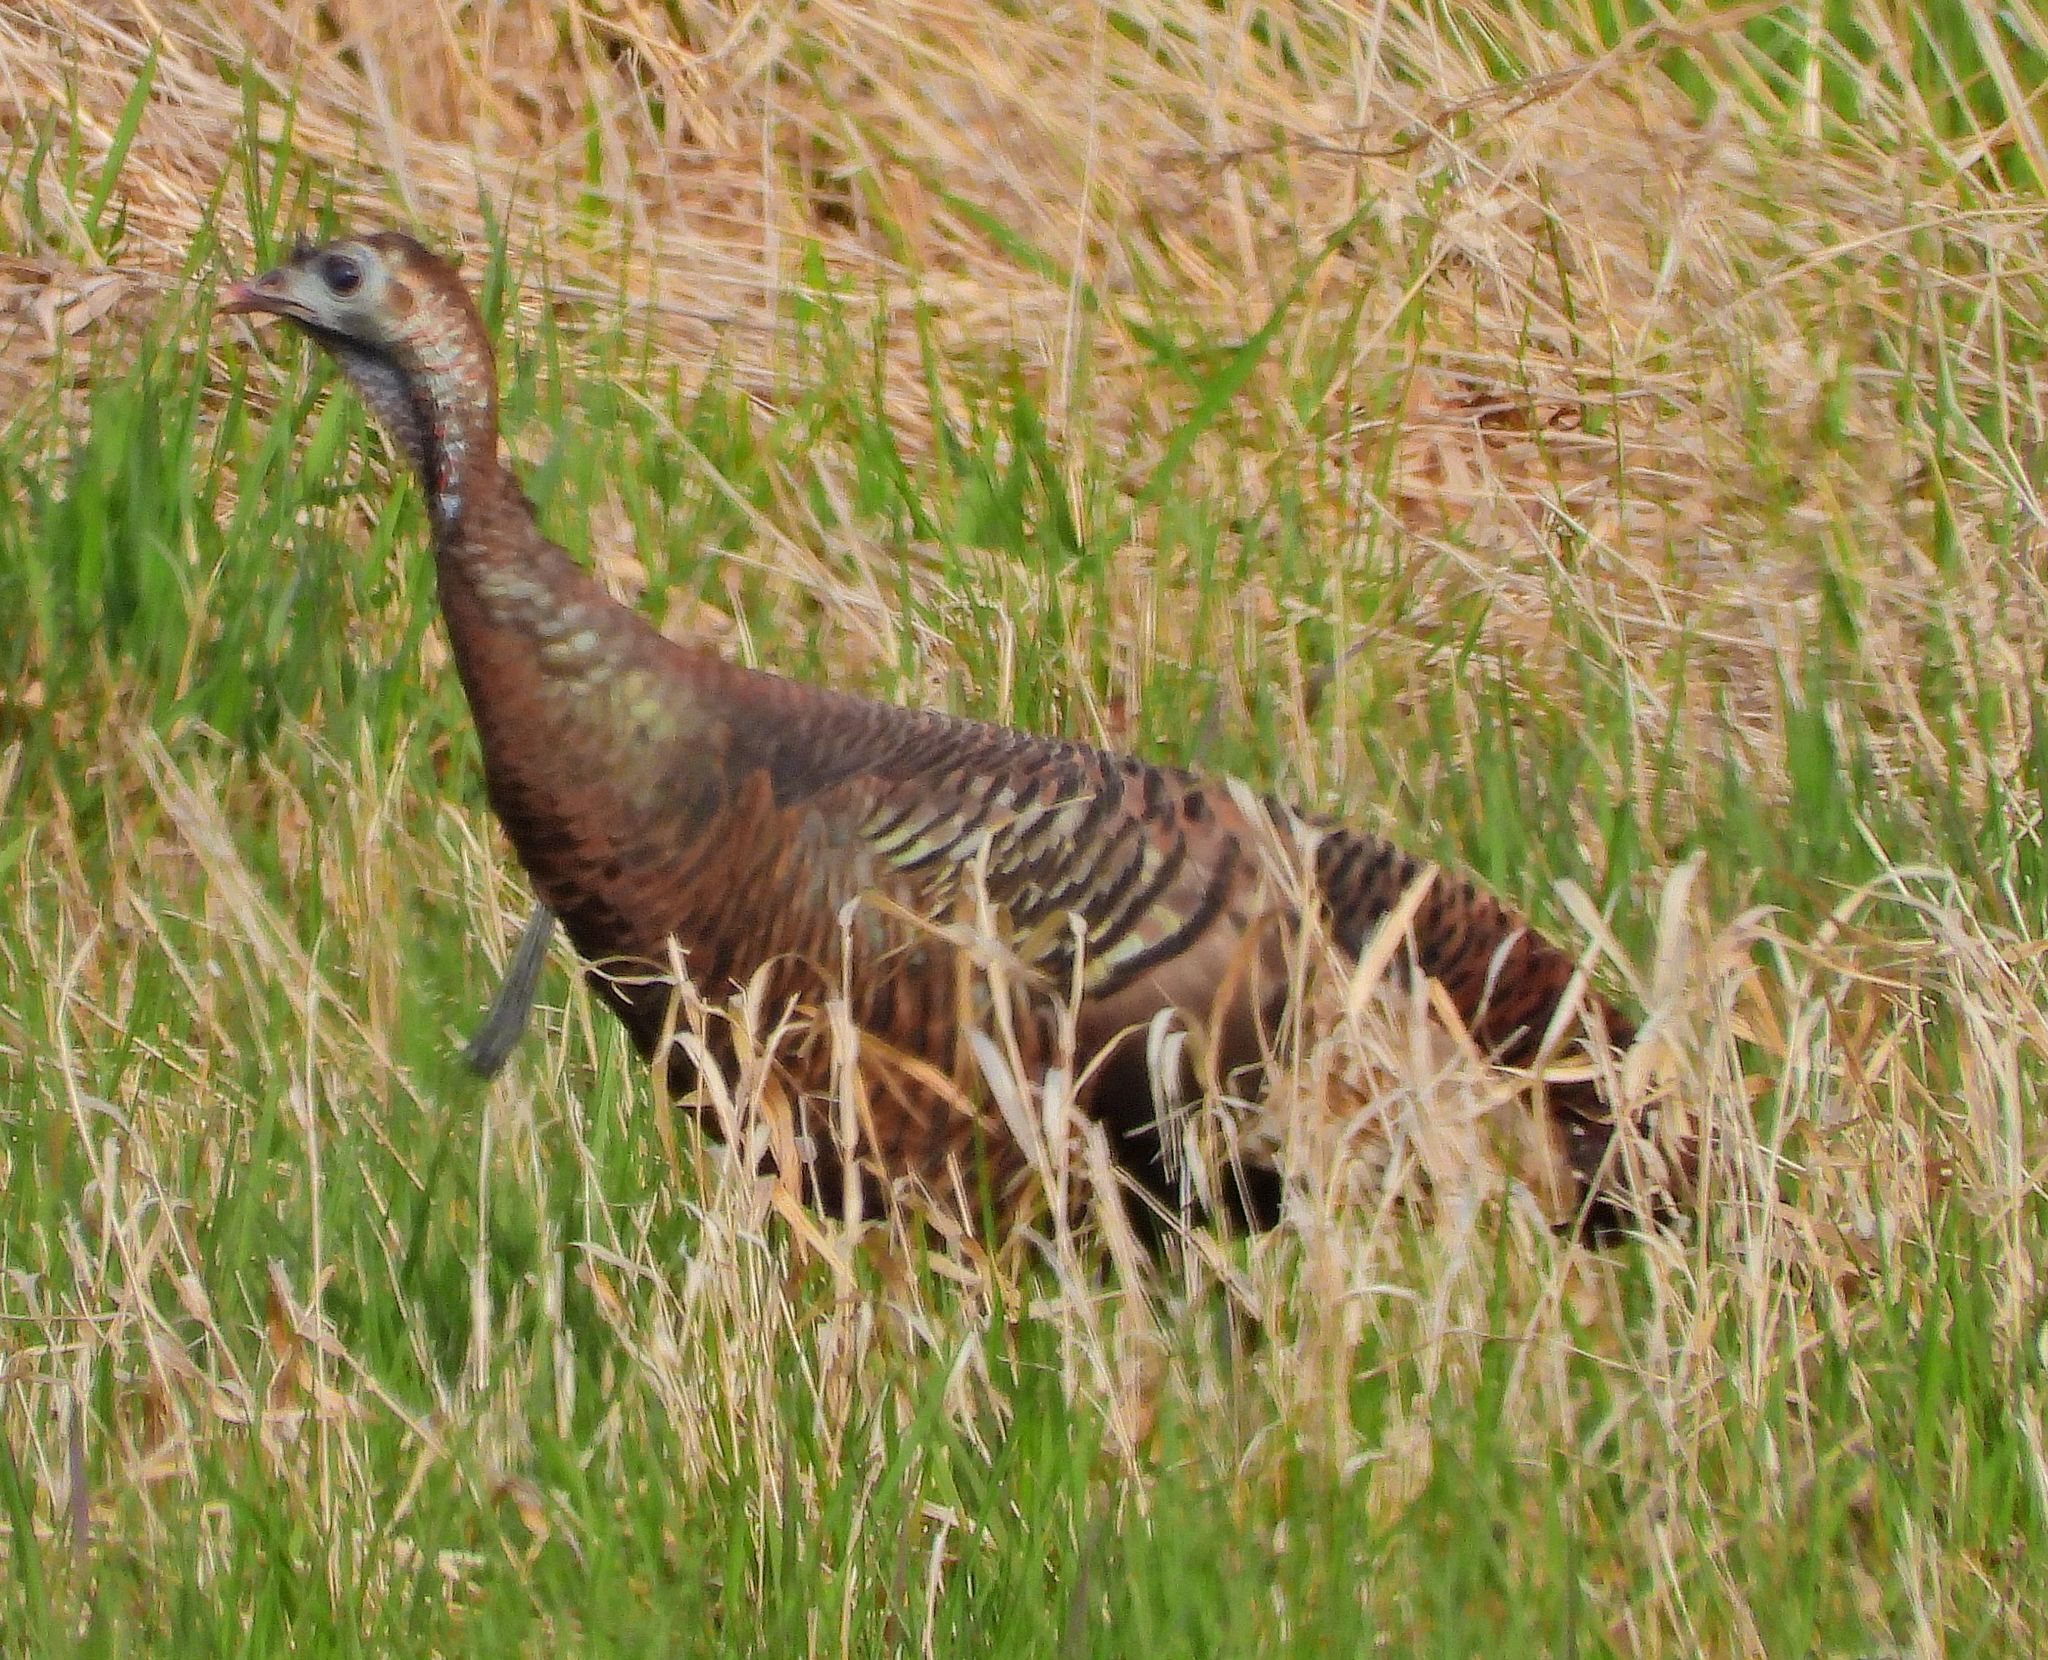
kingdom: Animalia
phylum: Chordata
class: Aves
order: Galliformes
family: Phasianidae
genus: Meleagris
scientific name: Meleagris gallopavo
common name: Wild turkey
